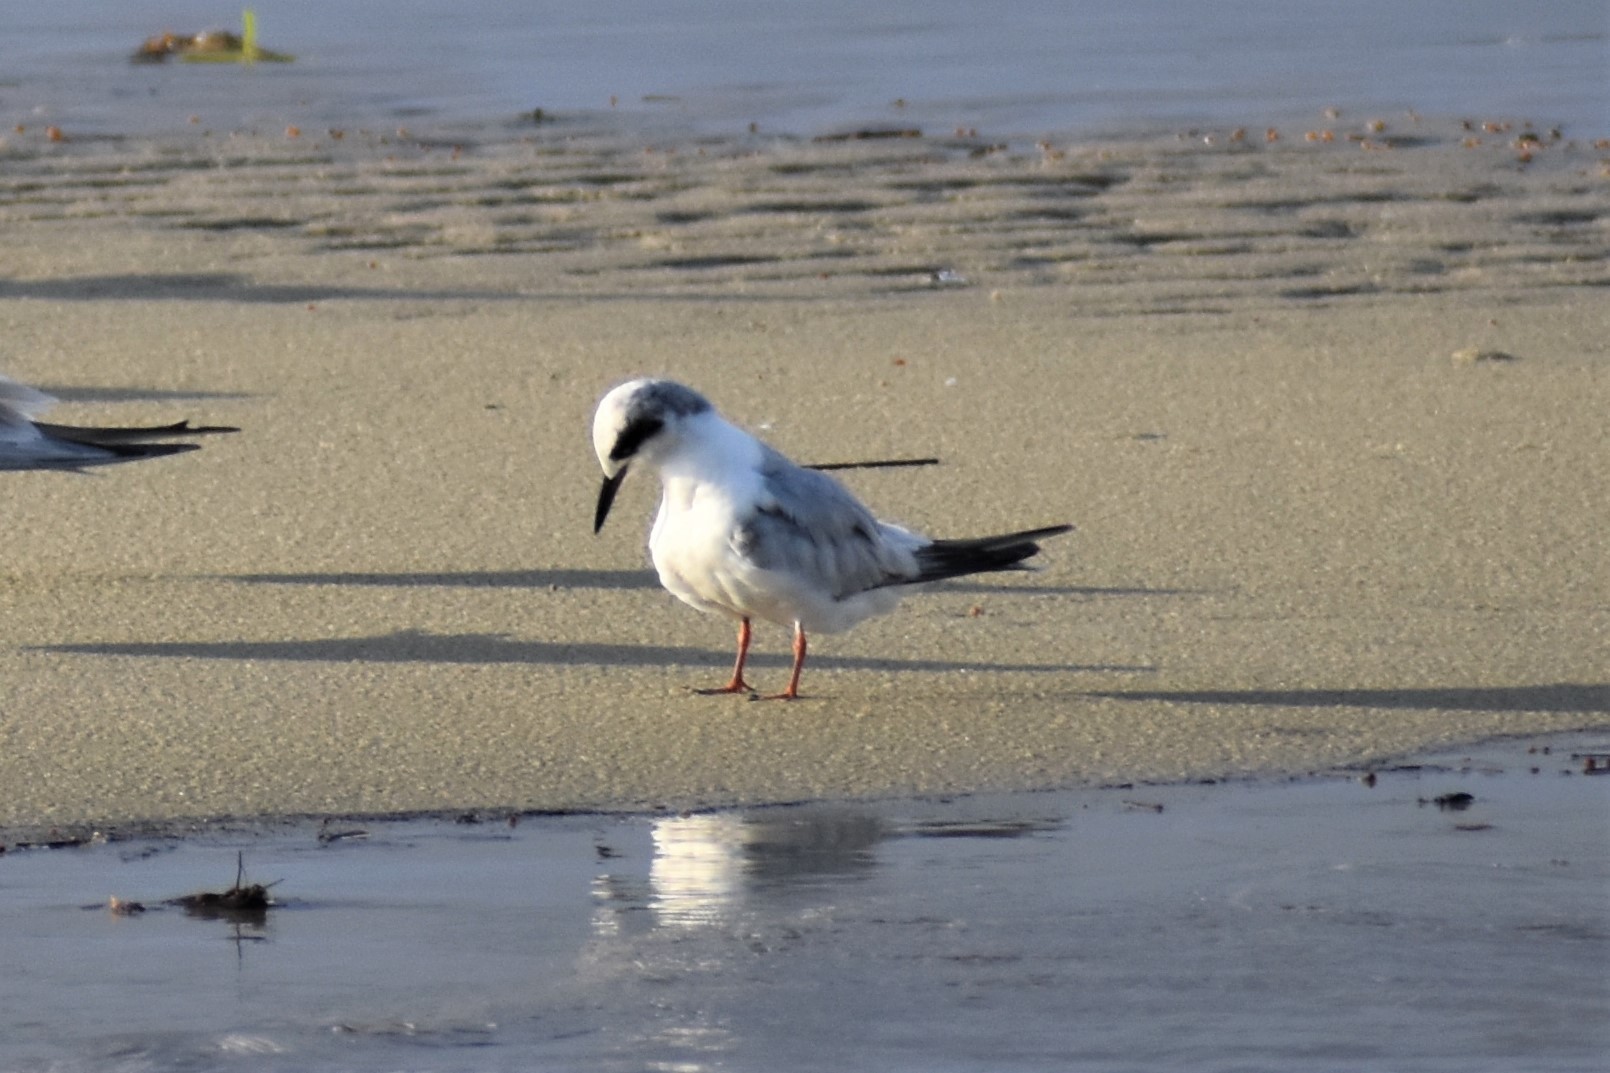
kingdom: Animalia
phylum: Chordata
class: Aves
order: Charadriiformes
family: Laridae
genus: Sterna
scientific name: Sterna forsteri
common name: Forster's tern
